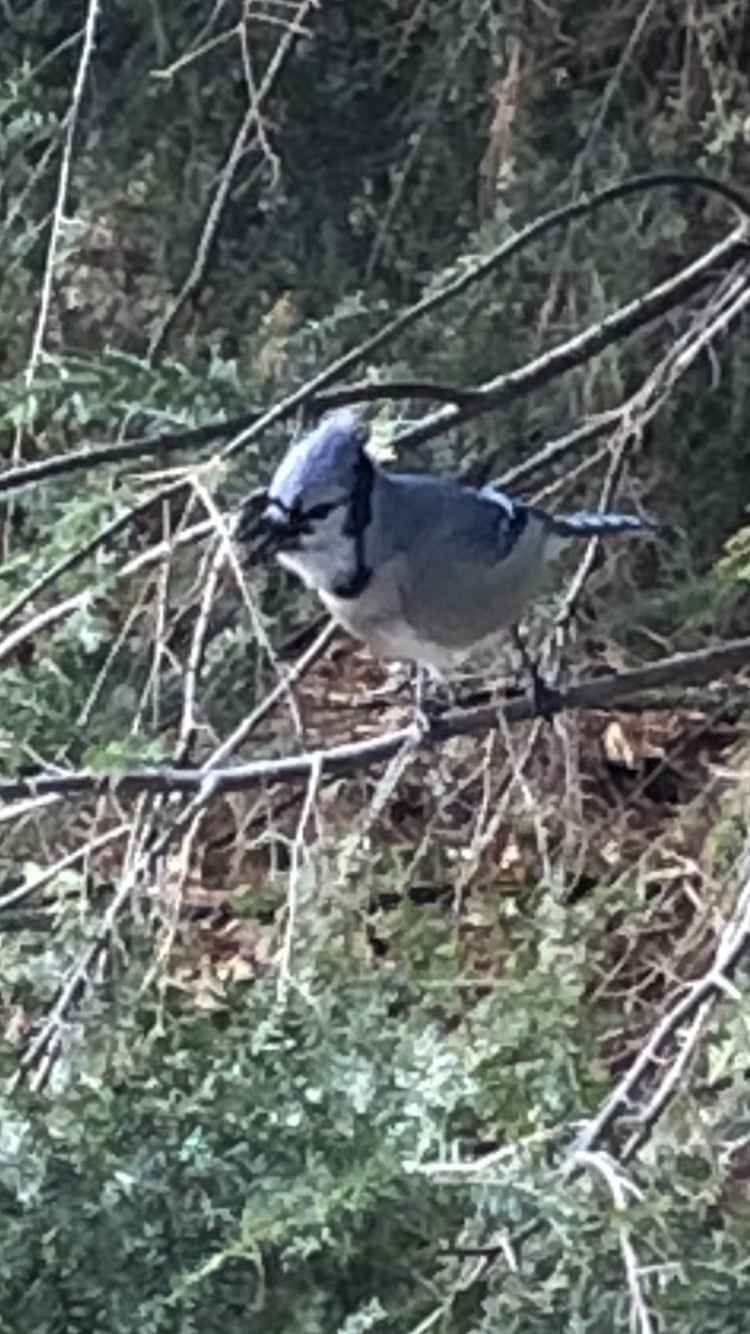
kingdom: Animalia
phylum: Chordata
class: Aves
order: Passeriformes
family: Corvidae
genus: Cyanocitta
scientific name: Cyanocitta cristata
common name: Blue jay
